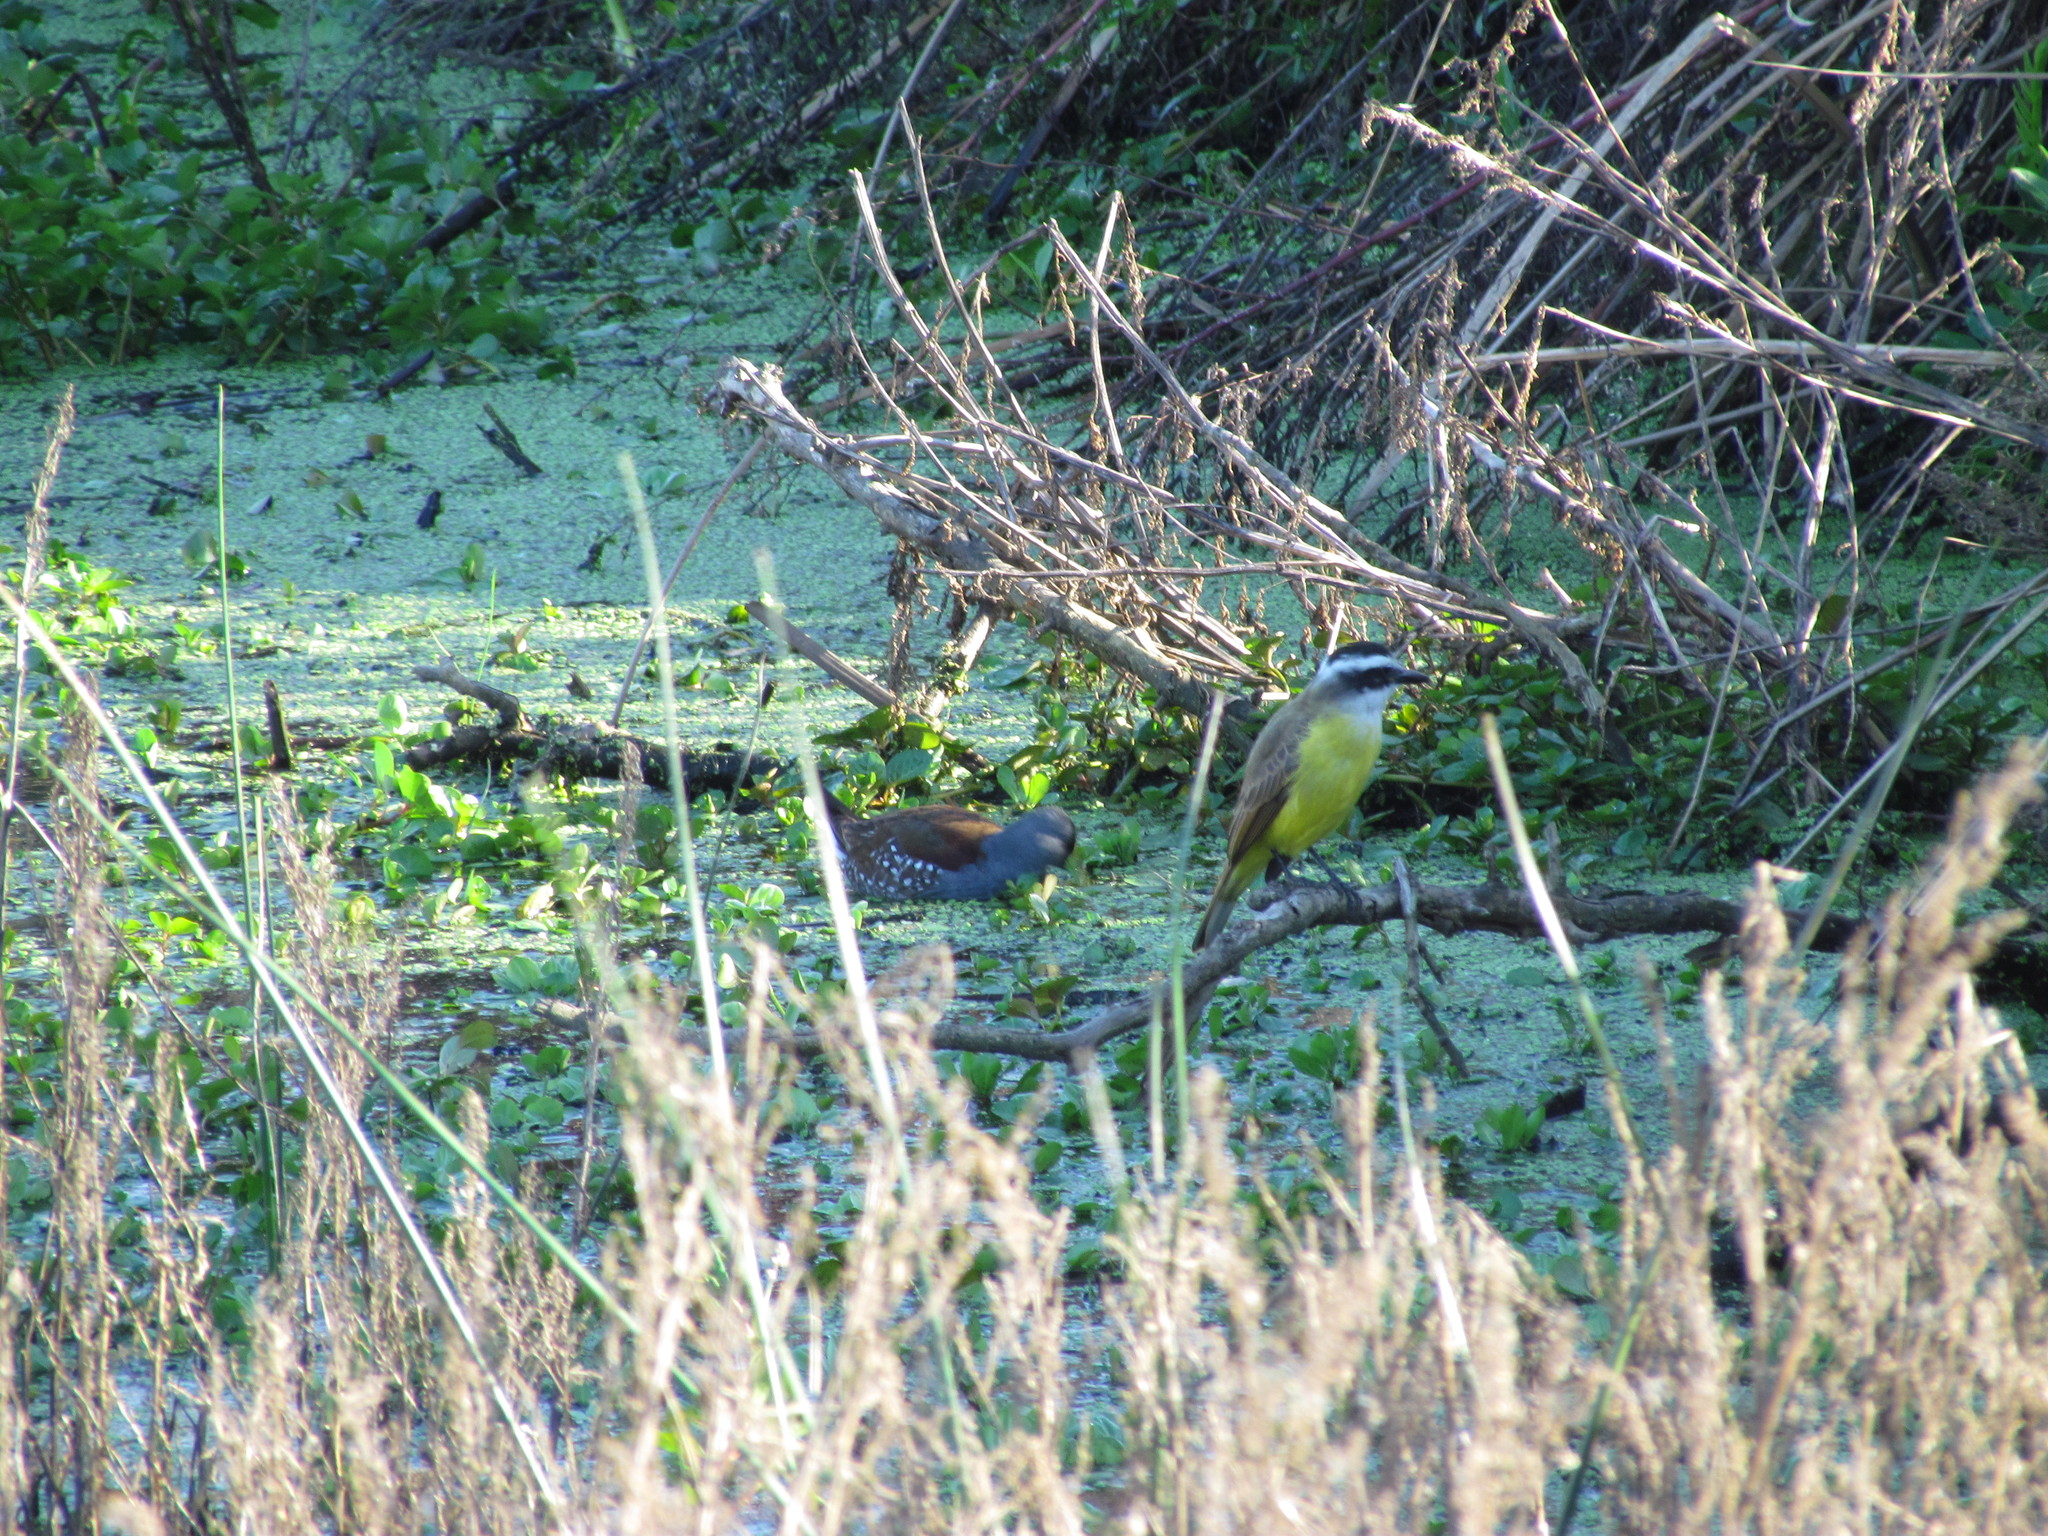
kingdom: Animalia
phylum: Chordata
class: Aves
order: Gruiformes
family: Rallidae
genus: Gallinula
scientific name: Gallinula melanops
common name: Spot-flanked gallinule
